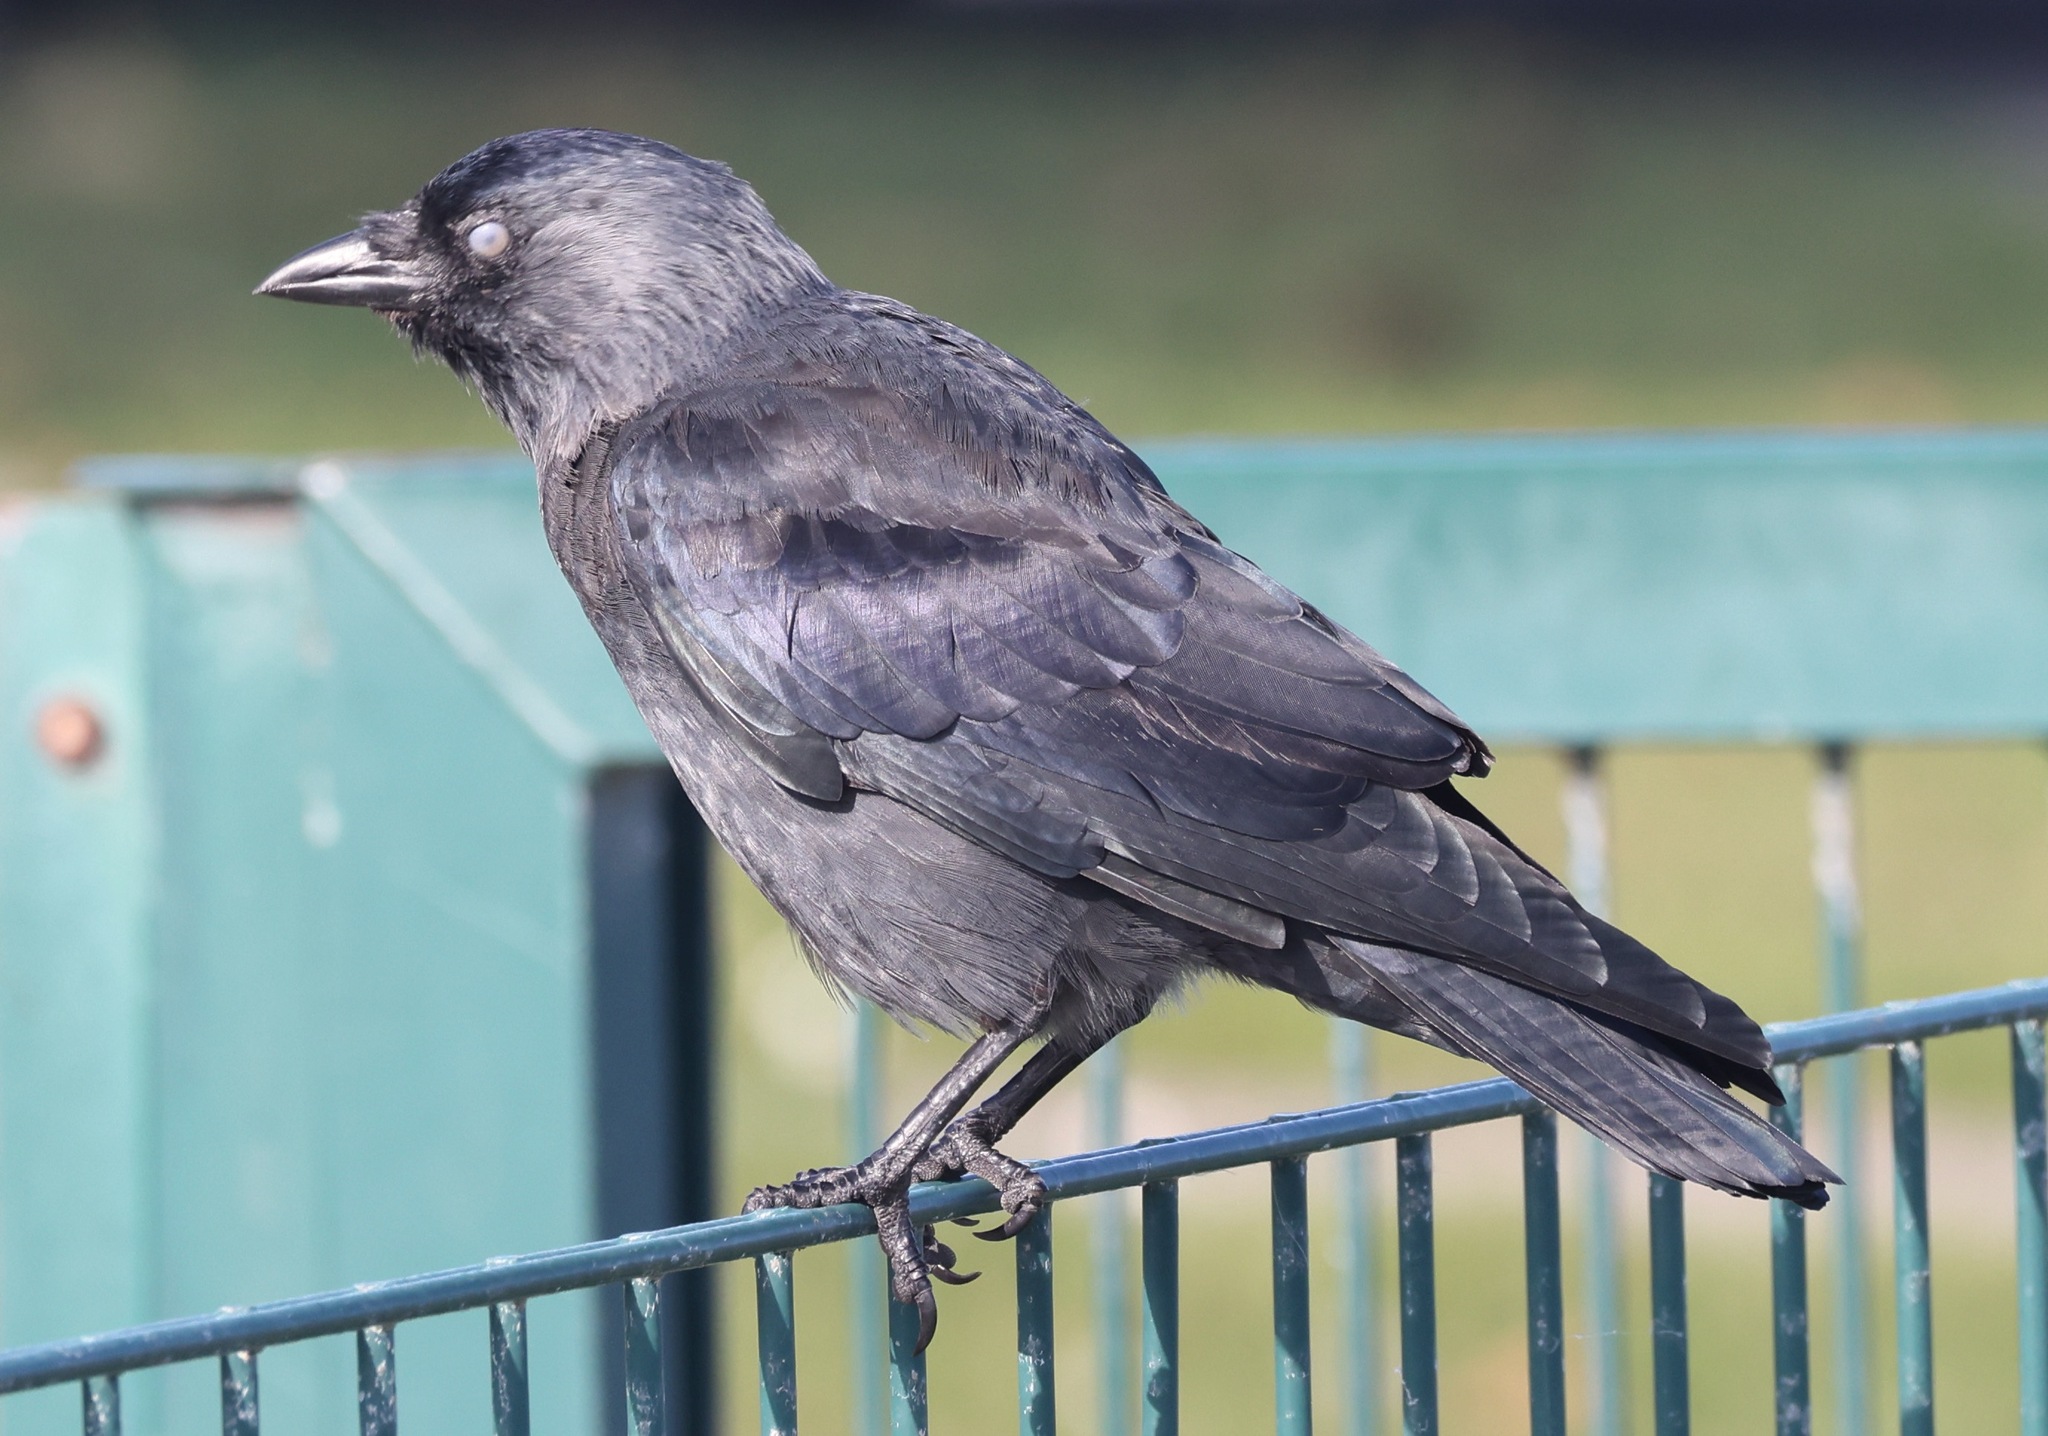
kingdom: Animalia
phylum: Chordata
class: Aves
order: Passeriformes
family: Corvidae
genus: Coloeus
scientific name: Coloeus monedula
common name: Western jackdaw
